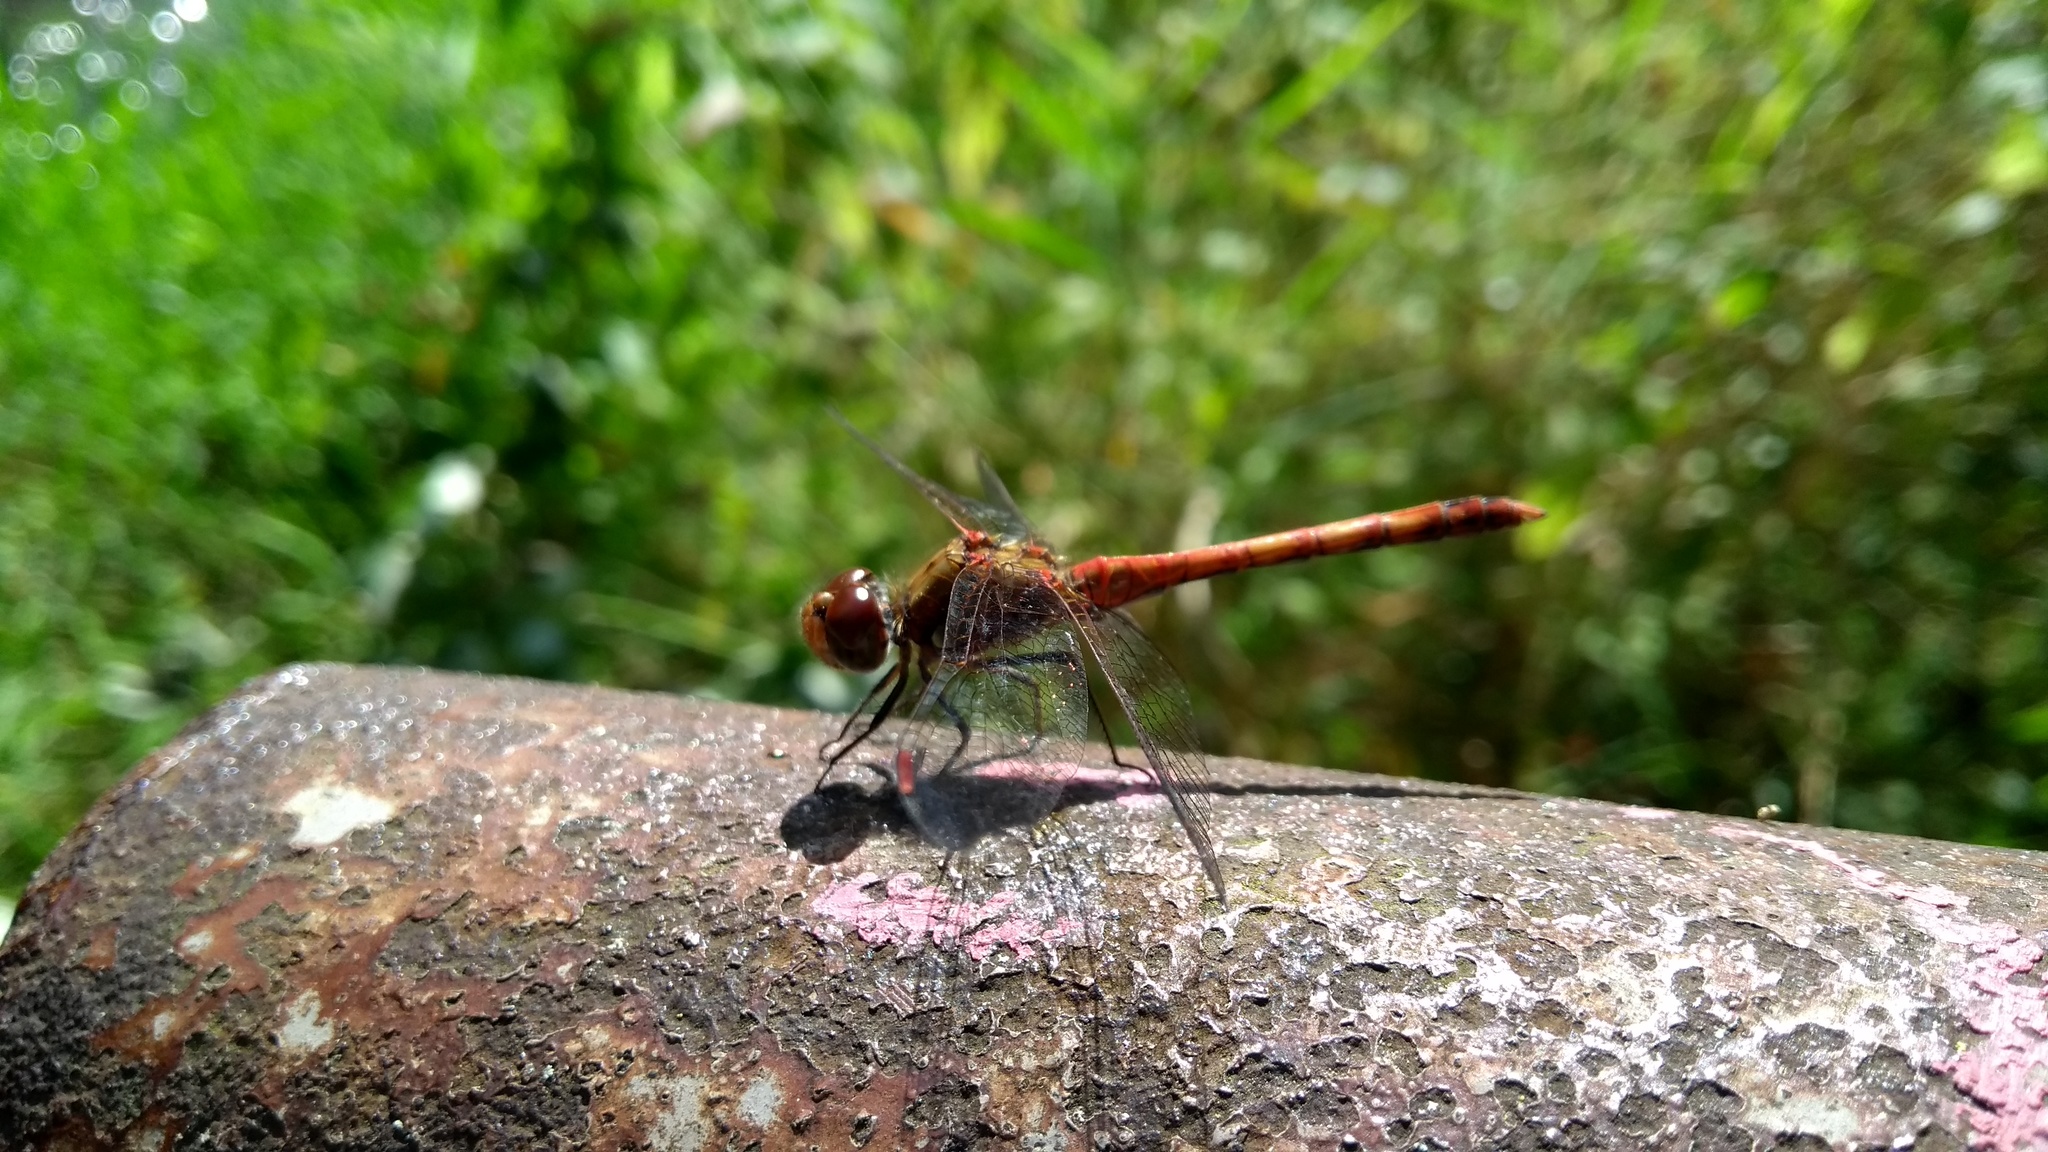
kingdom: Animalia
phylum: Arthropoda
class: Insecta
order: Odonata
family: Libellulidae
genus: Sympetrum
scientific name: Sympetrum striolatum
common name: Common darter
